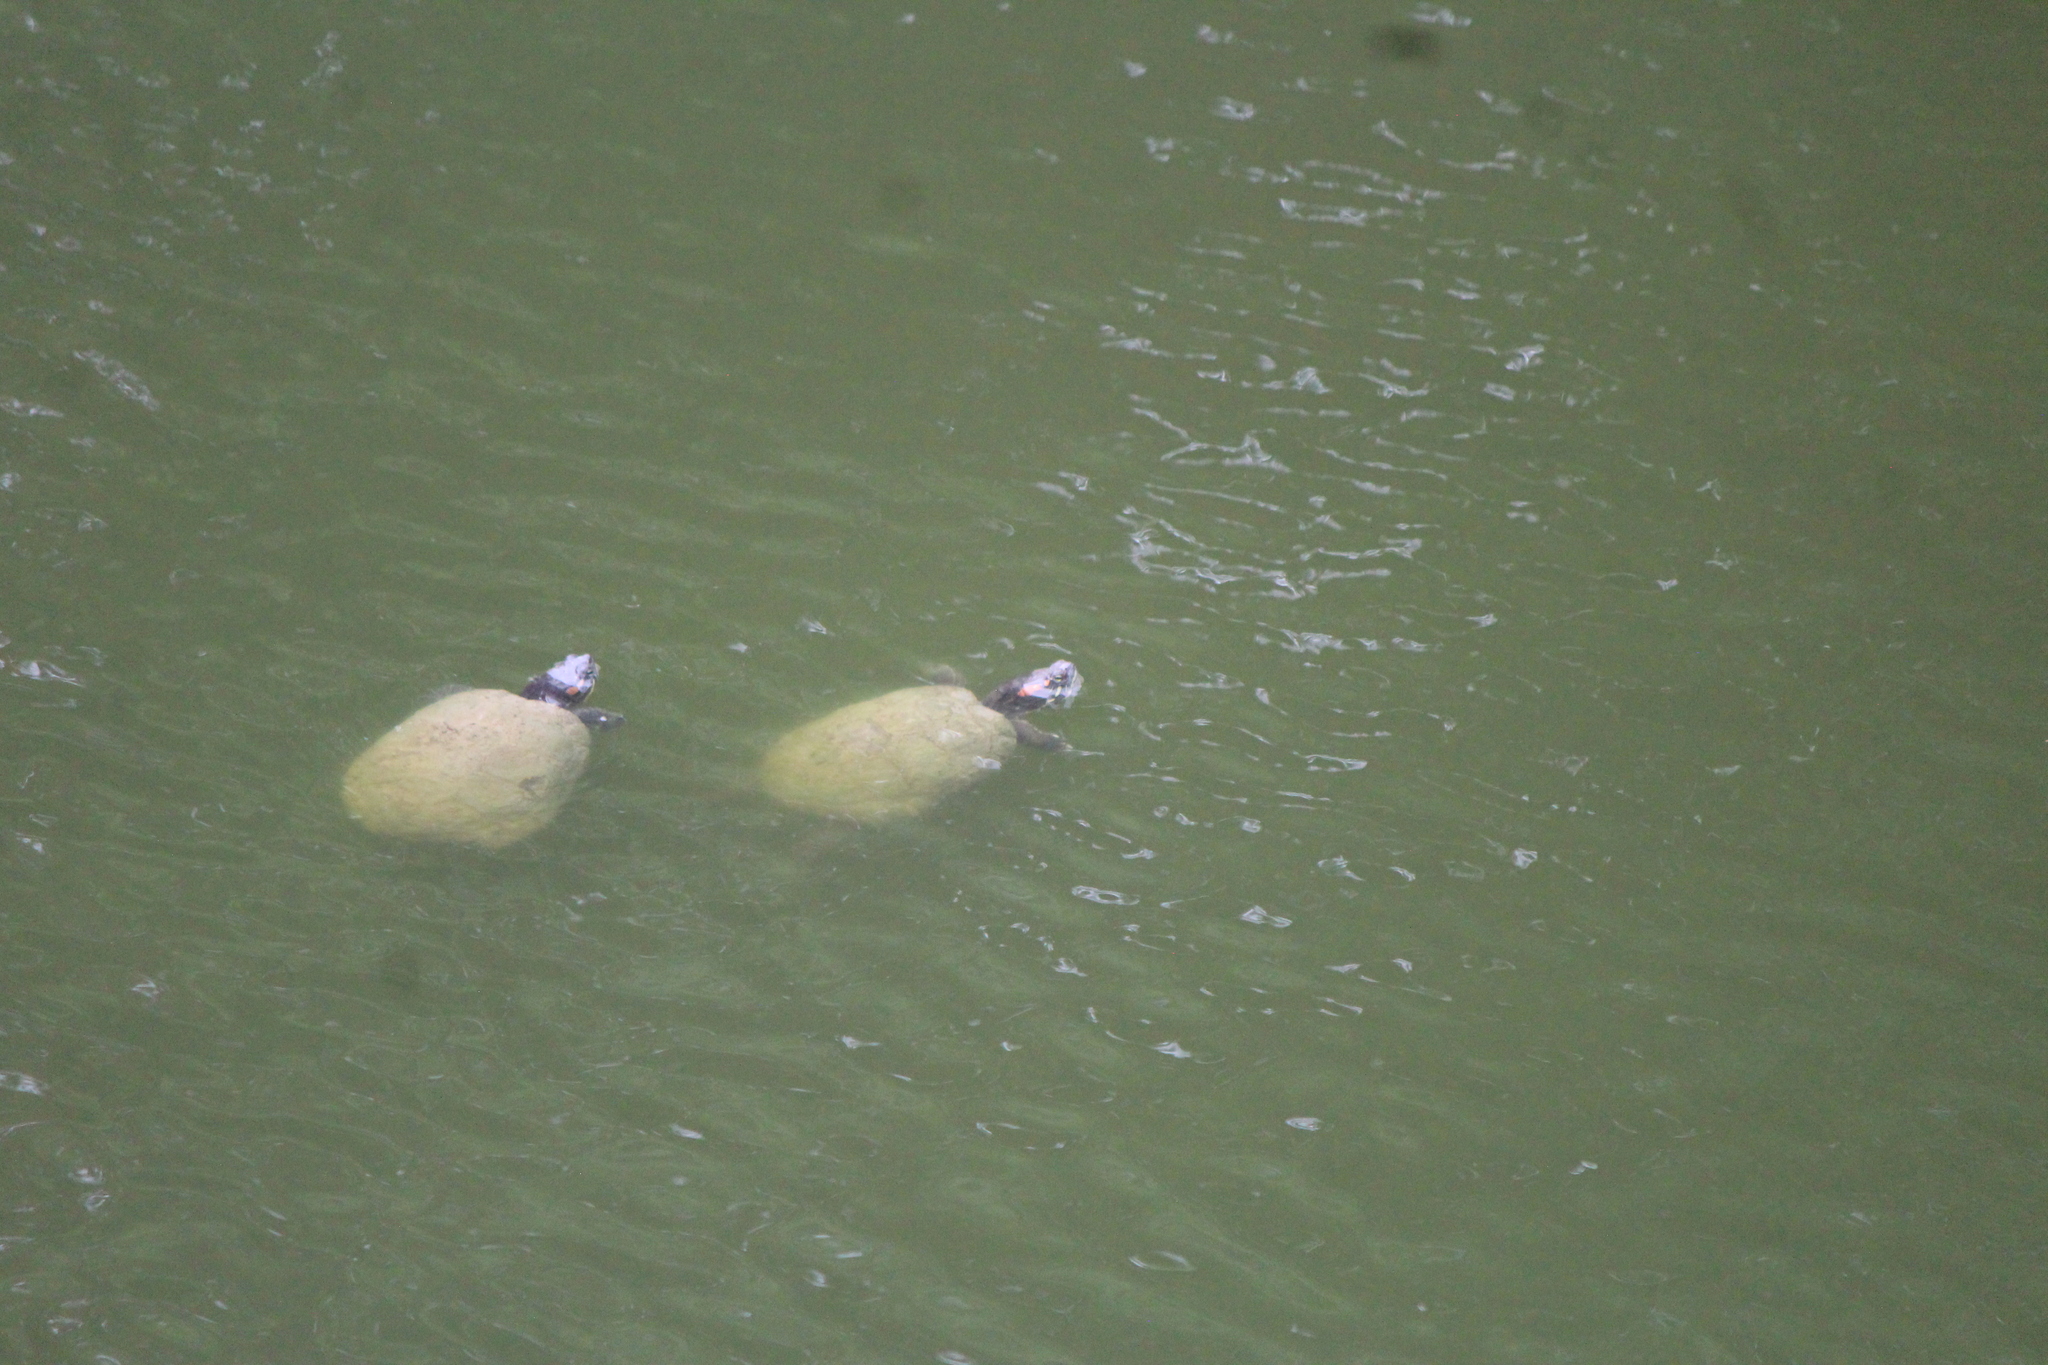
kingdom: Animalia
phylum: Chordata
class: Testudines
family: Emydidae
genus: Trachemys
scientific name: Trachemys scripta
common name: Slider
